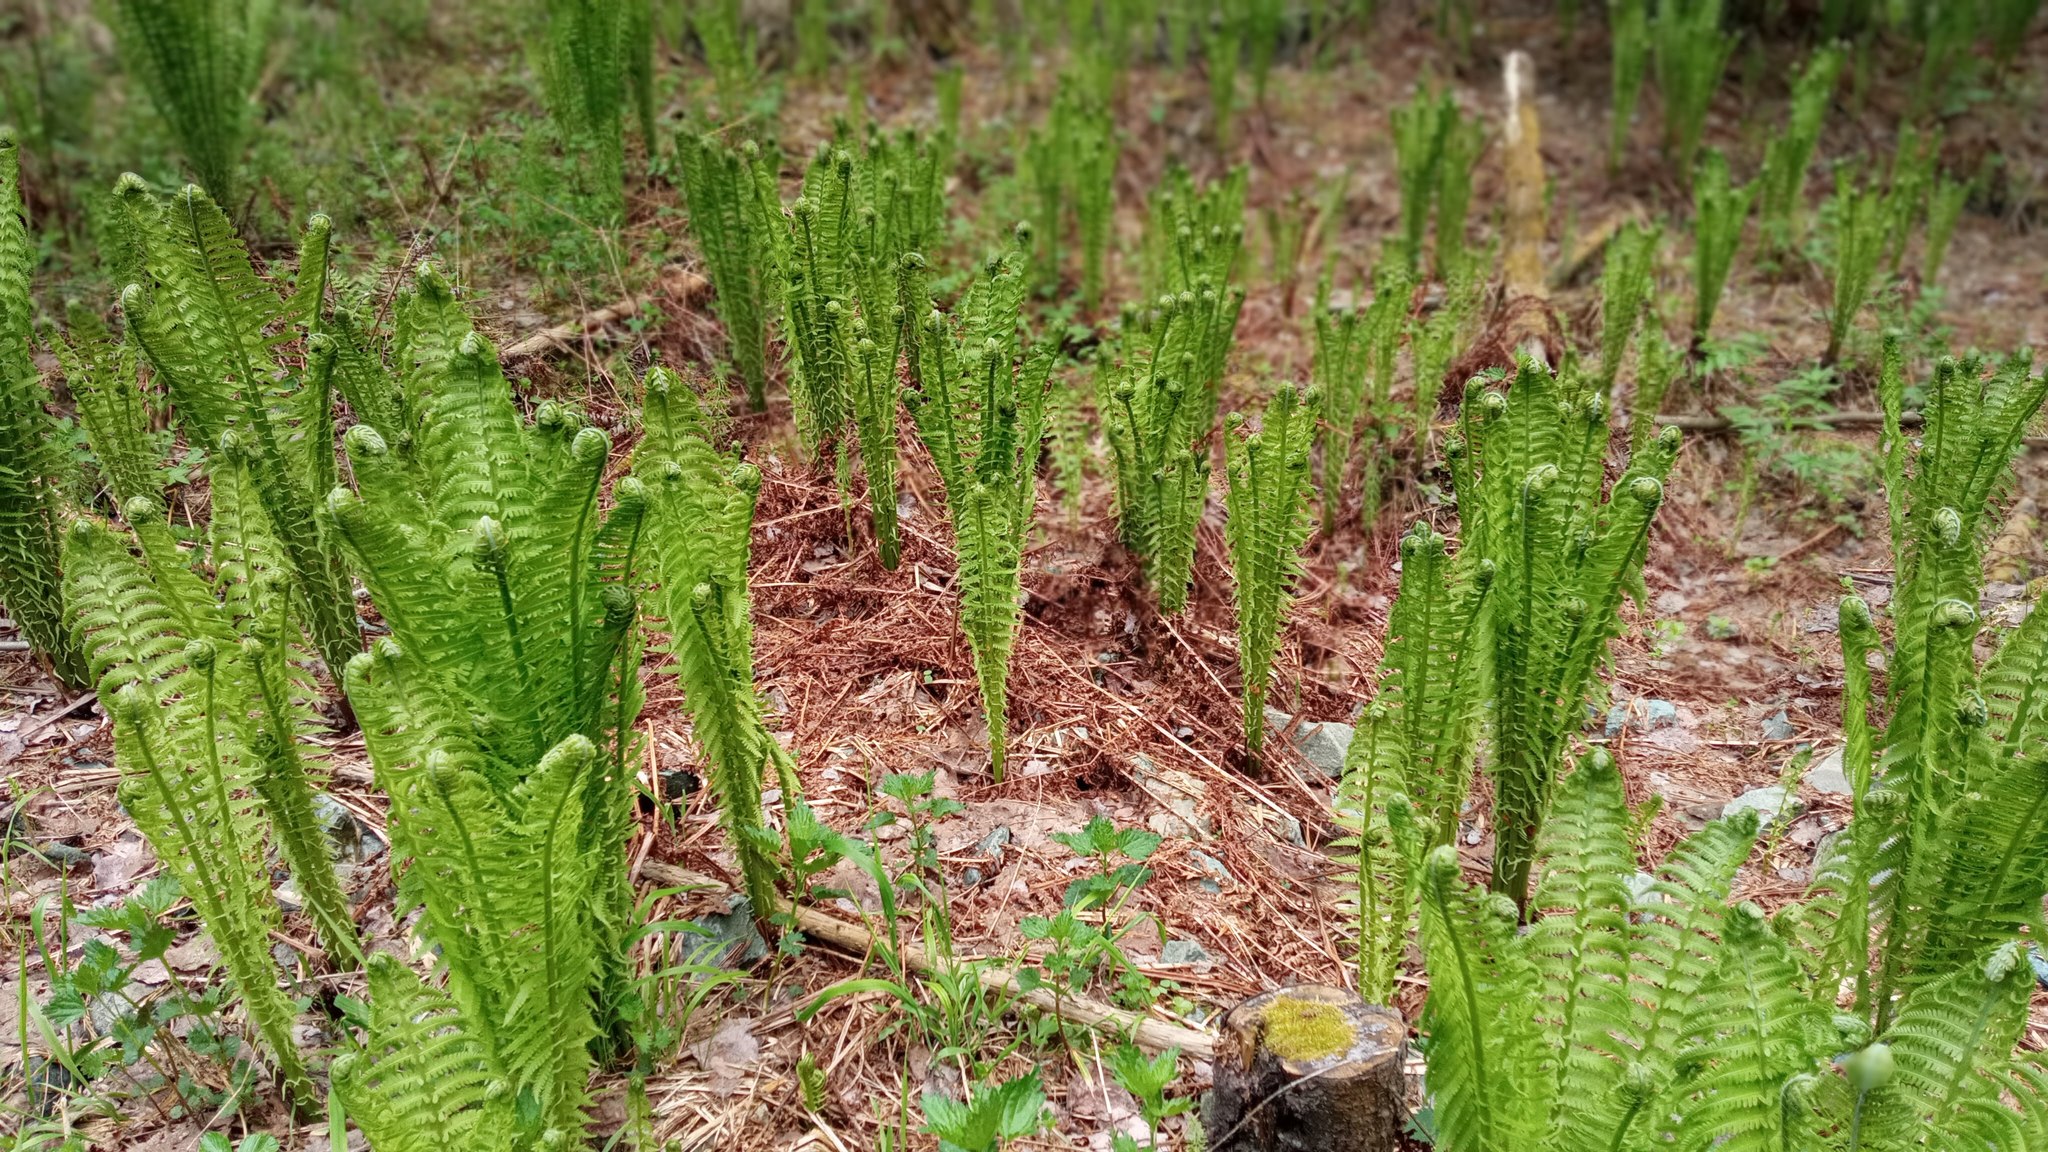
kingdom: Plantae
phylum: Tracheophyta
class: Polypodiopsida
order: Polypodiales
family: Onocleaceae
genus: Matteuccia
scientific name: Matteuccia struthiopteris
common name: Ostrich fern
